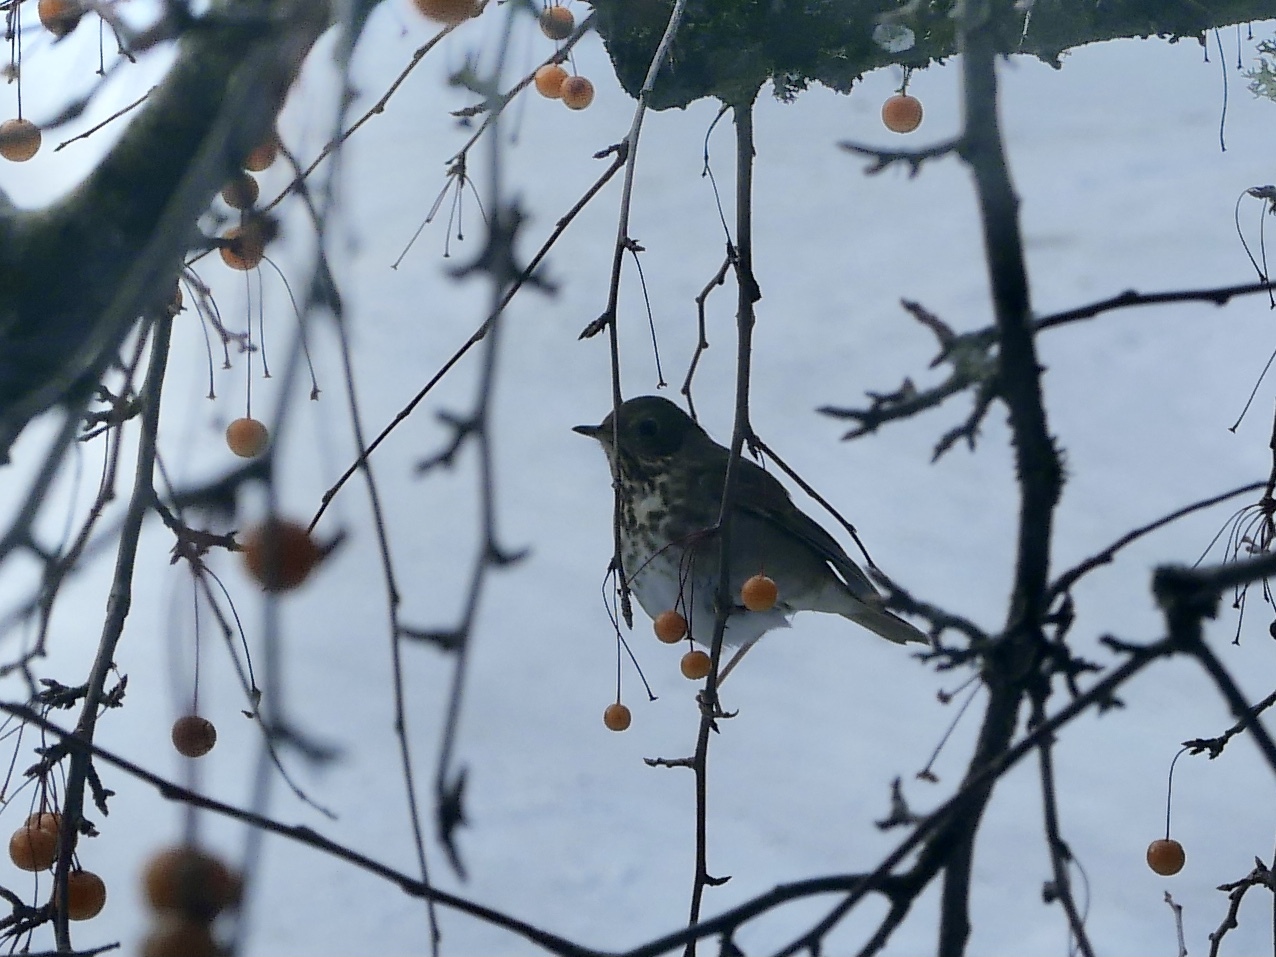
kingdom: Animalia
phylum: Chordata
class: Aves
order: Passeriformes
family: Turdidae
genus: Catharus
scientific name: Catharus guttatus
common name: Hermit thrush
